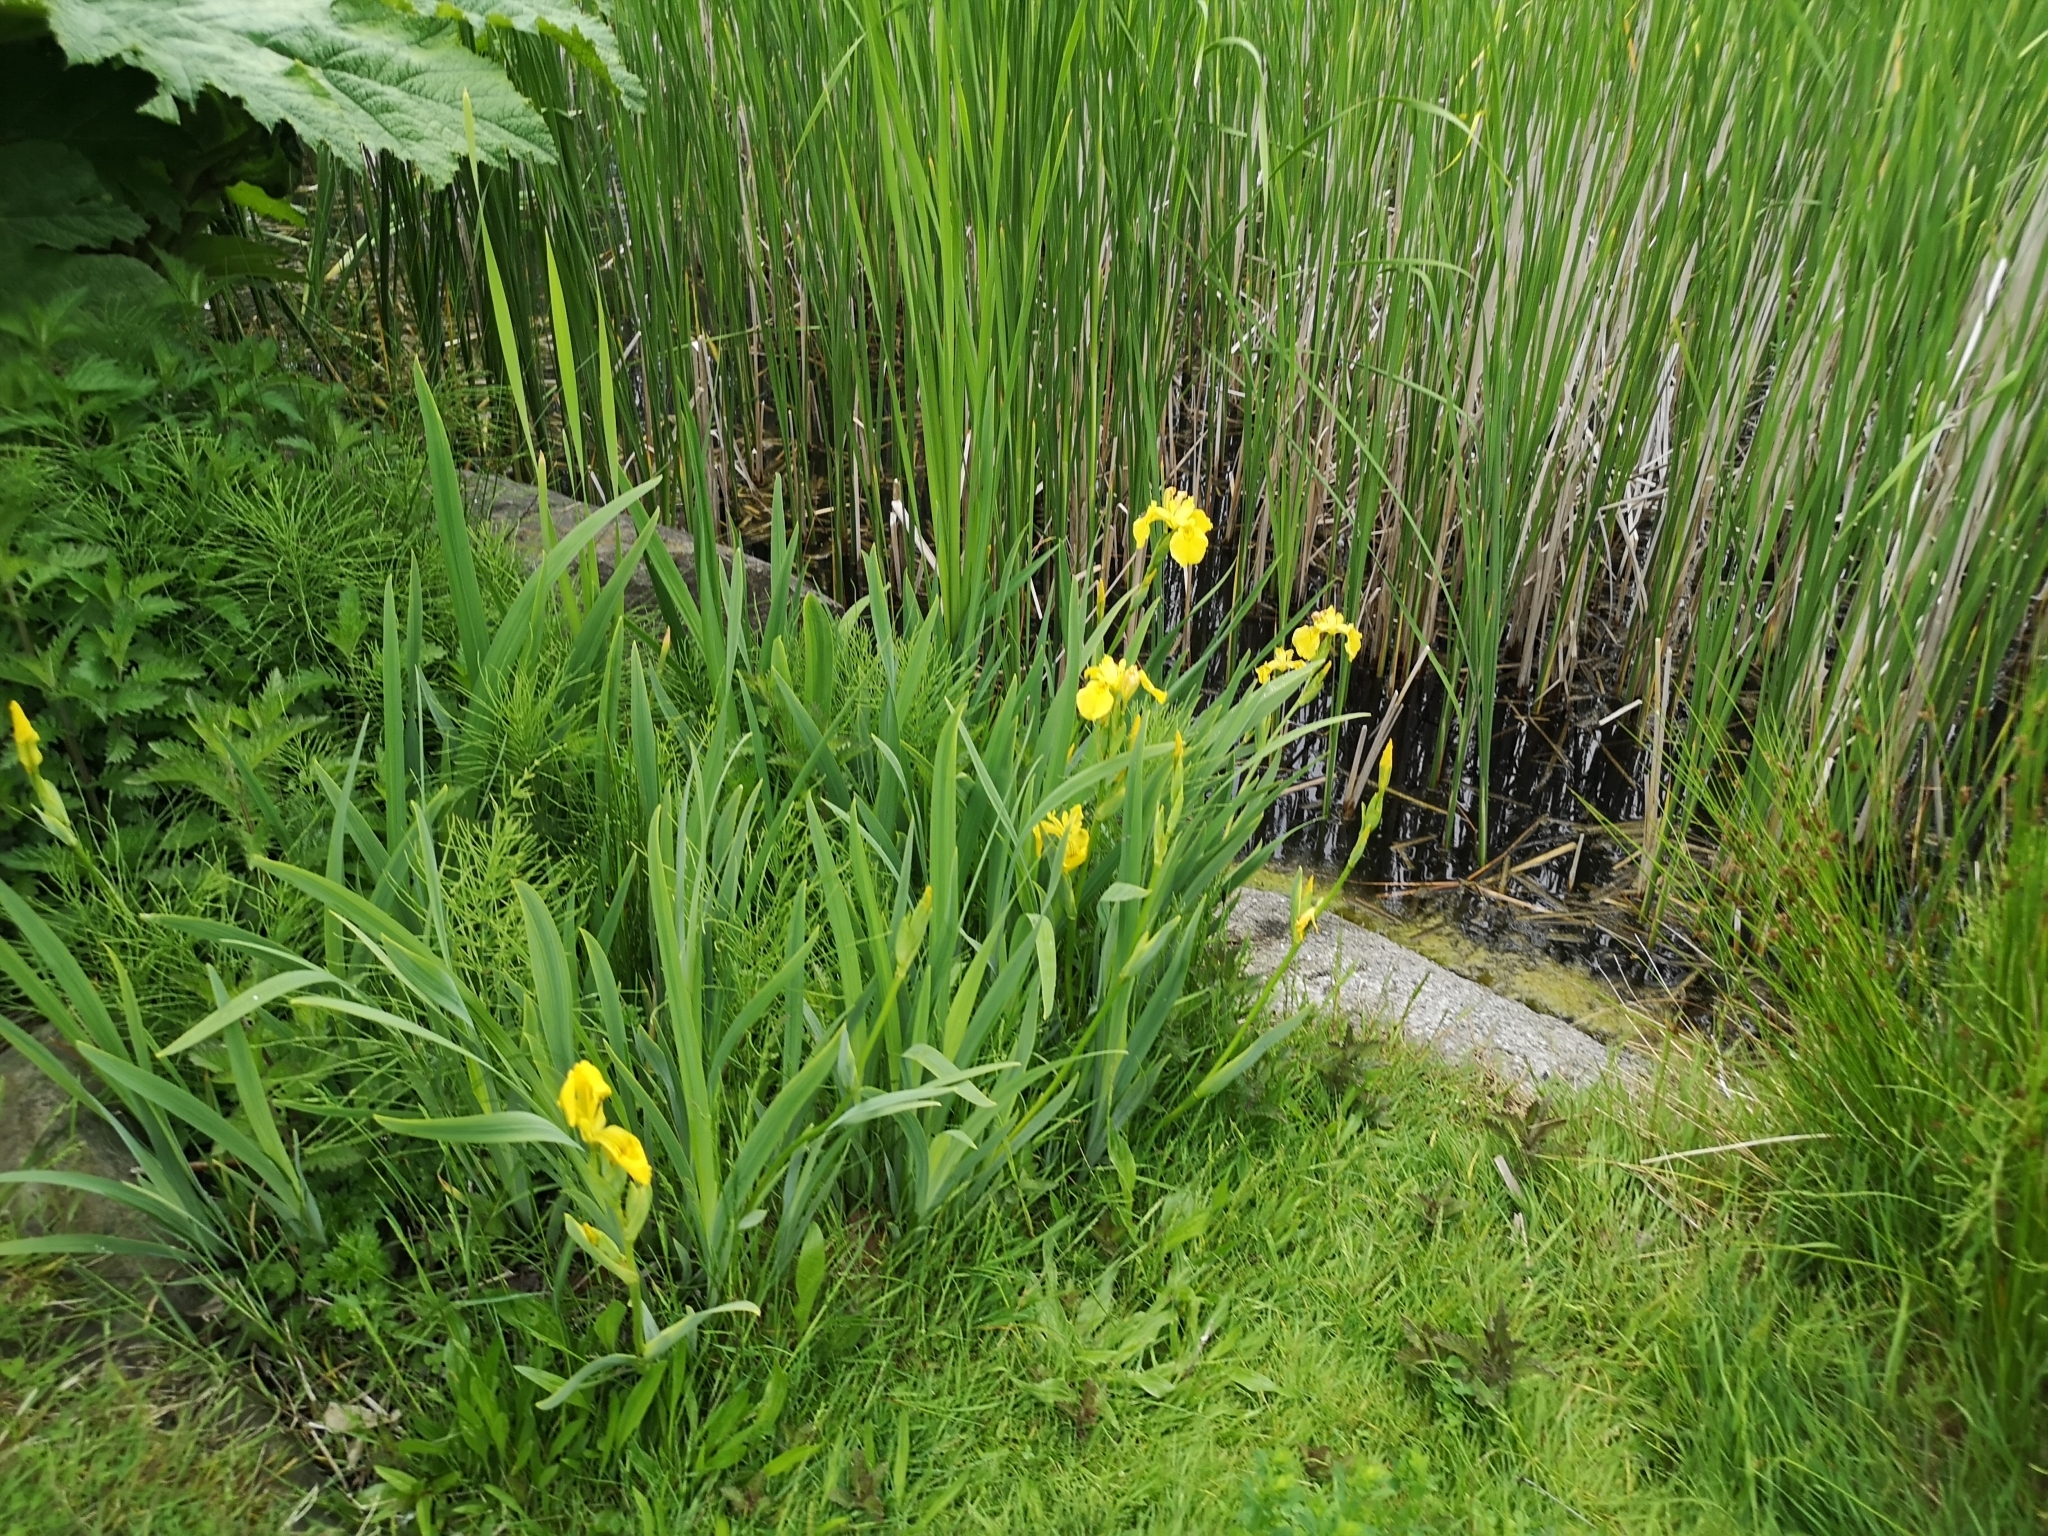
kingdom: Plantae
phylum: Tracheophyta
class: Liliopsida
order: Asparagales
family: Iridaceae
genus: Iris
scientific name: Iris pseudacorus
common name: Yellow flag
